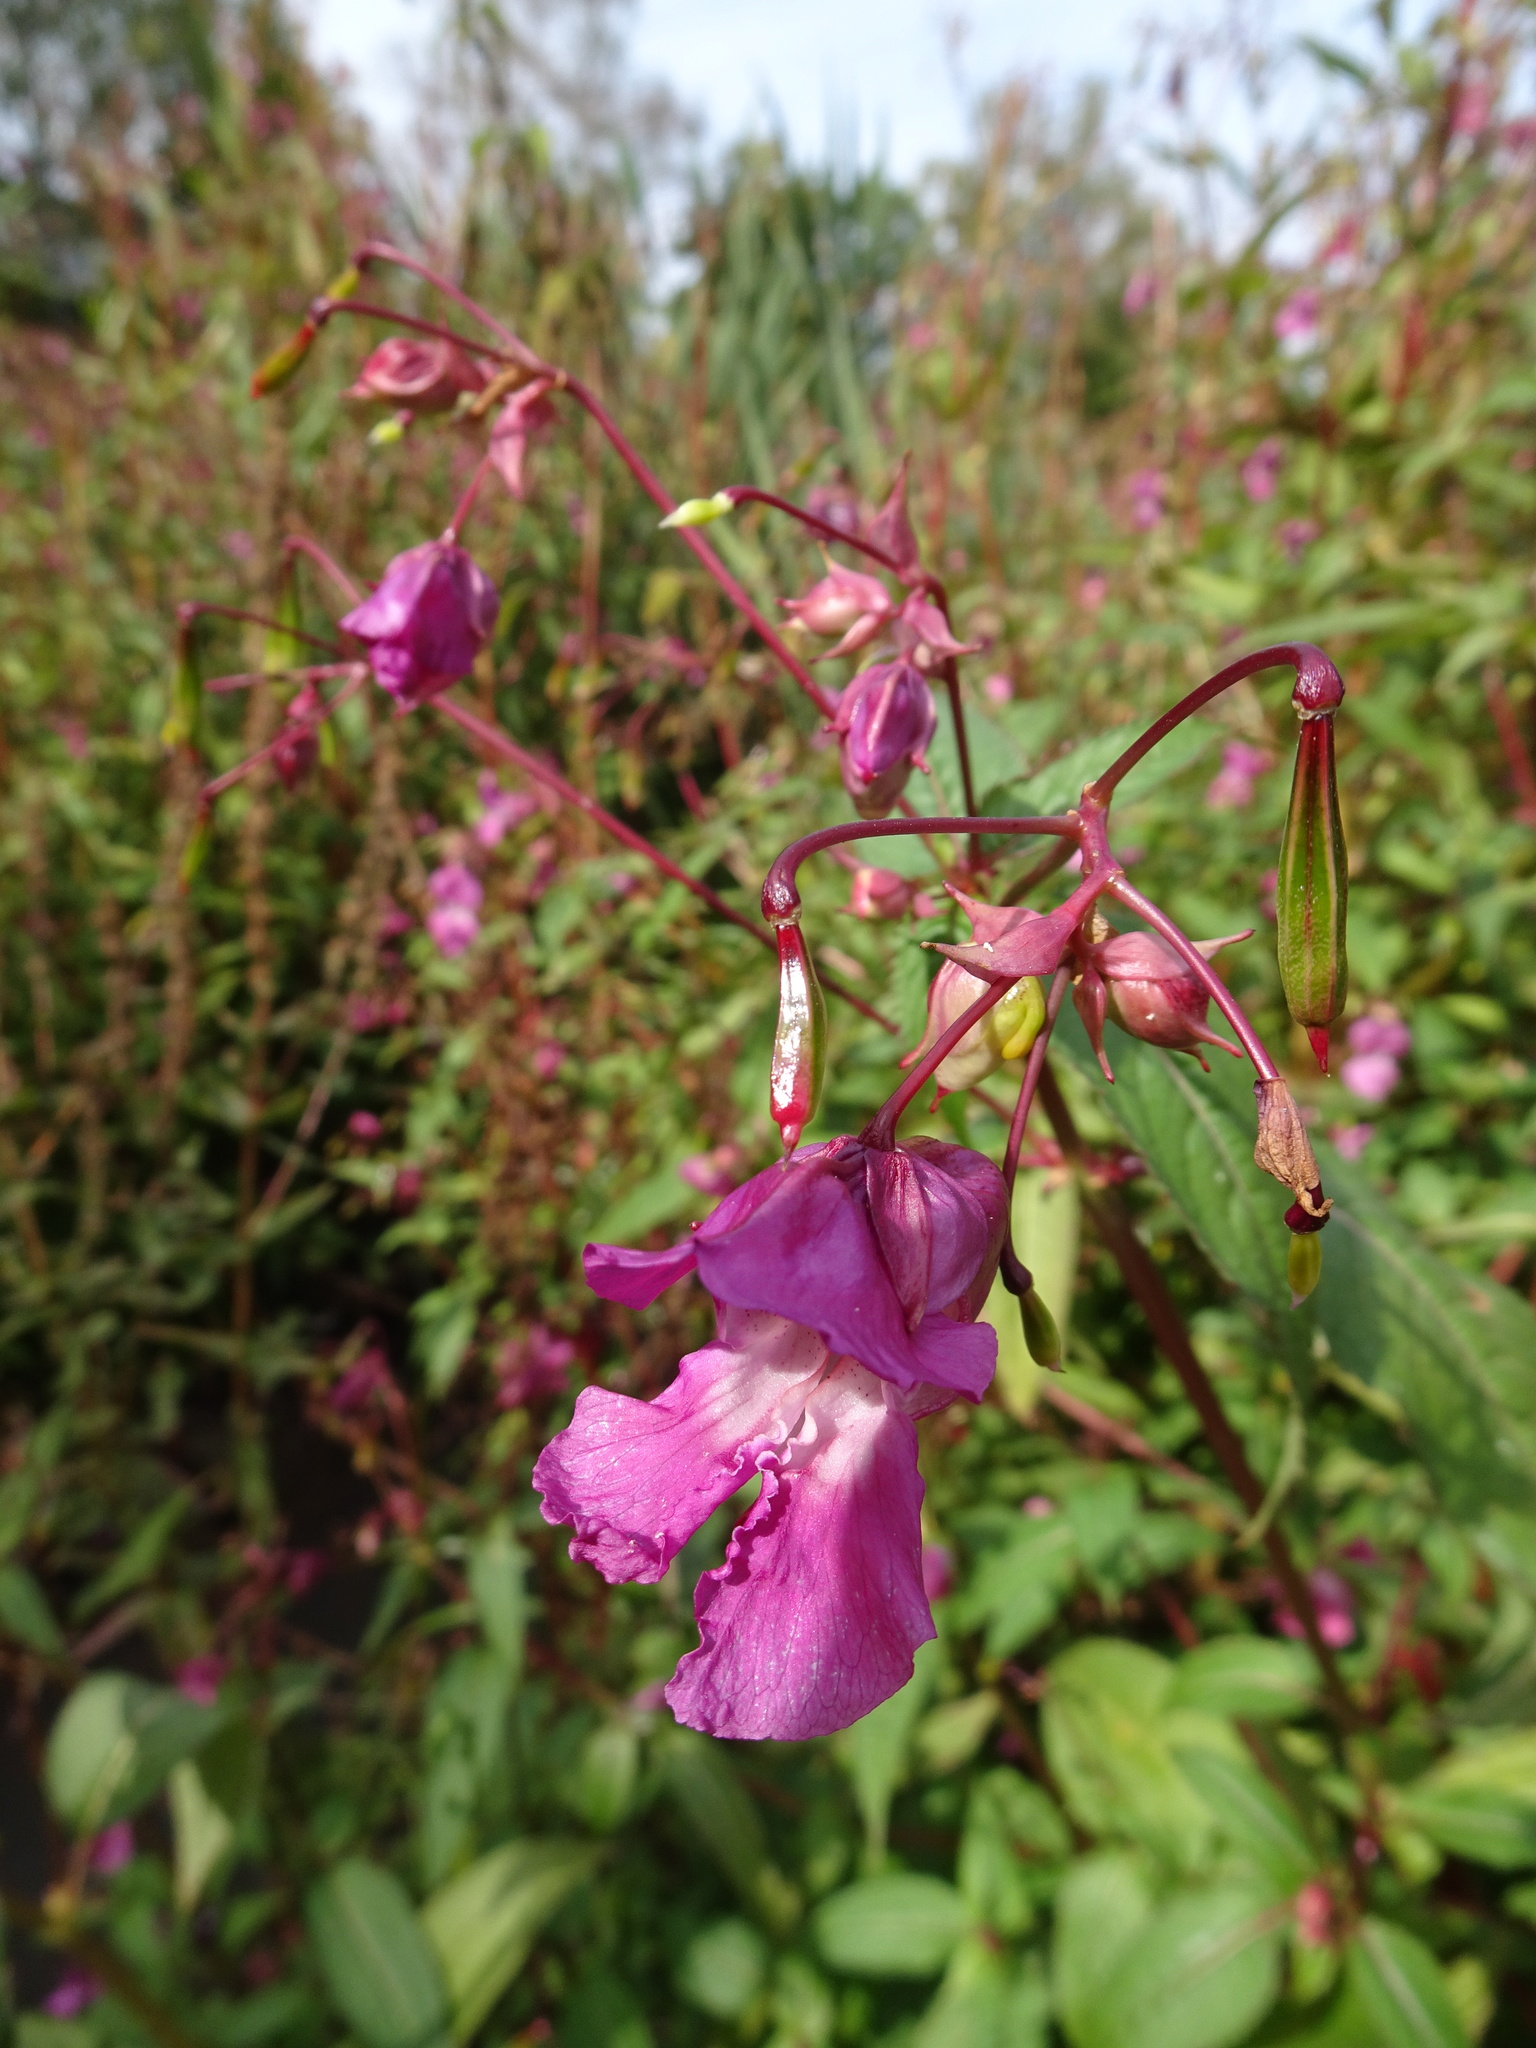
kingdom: Plantae
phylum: Tracheophyta
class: Magnoliopsida
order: Ericales
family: Balsaminaceae
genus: Impatiens
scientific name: Impatiens glandulifera
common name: Himalayan balsam
